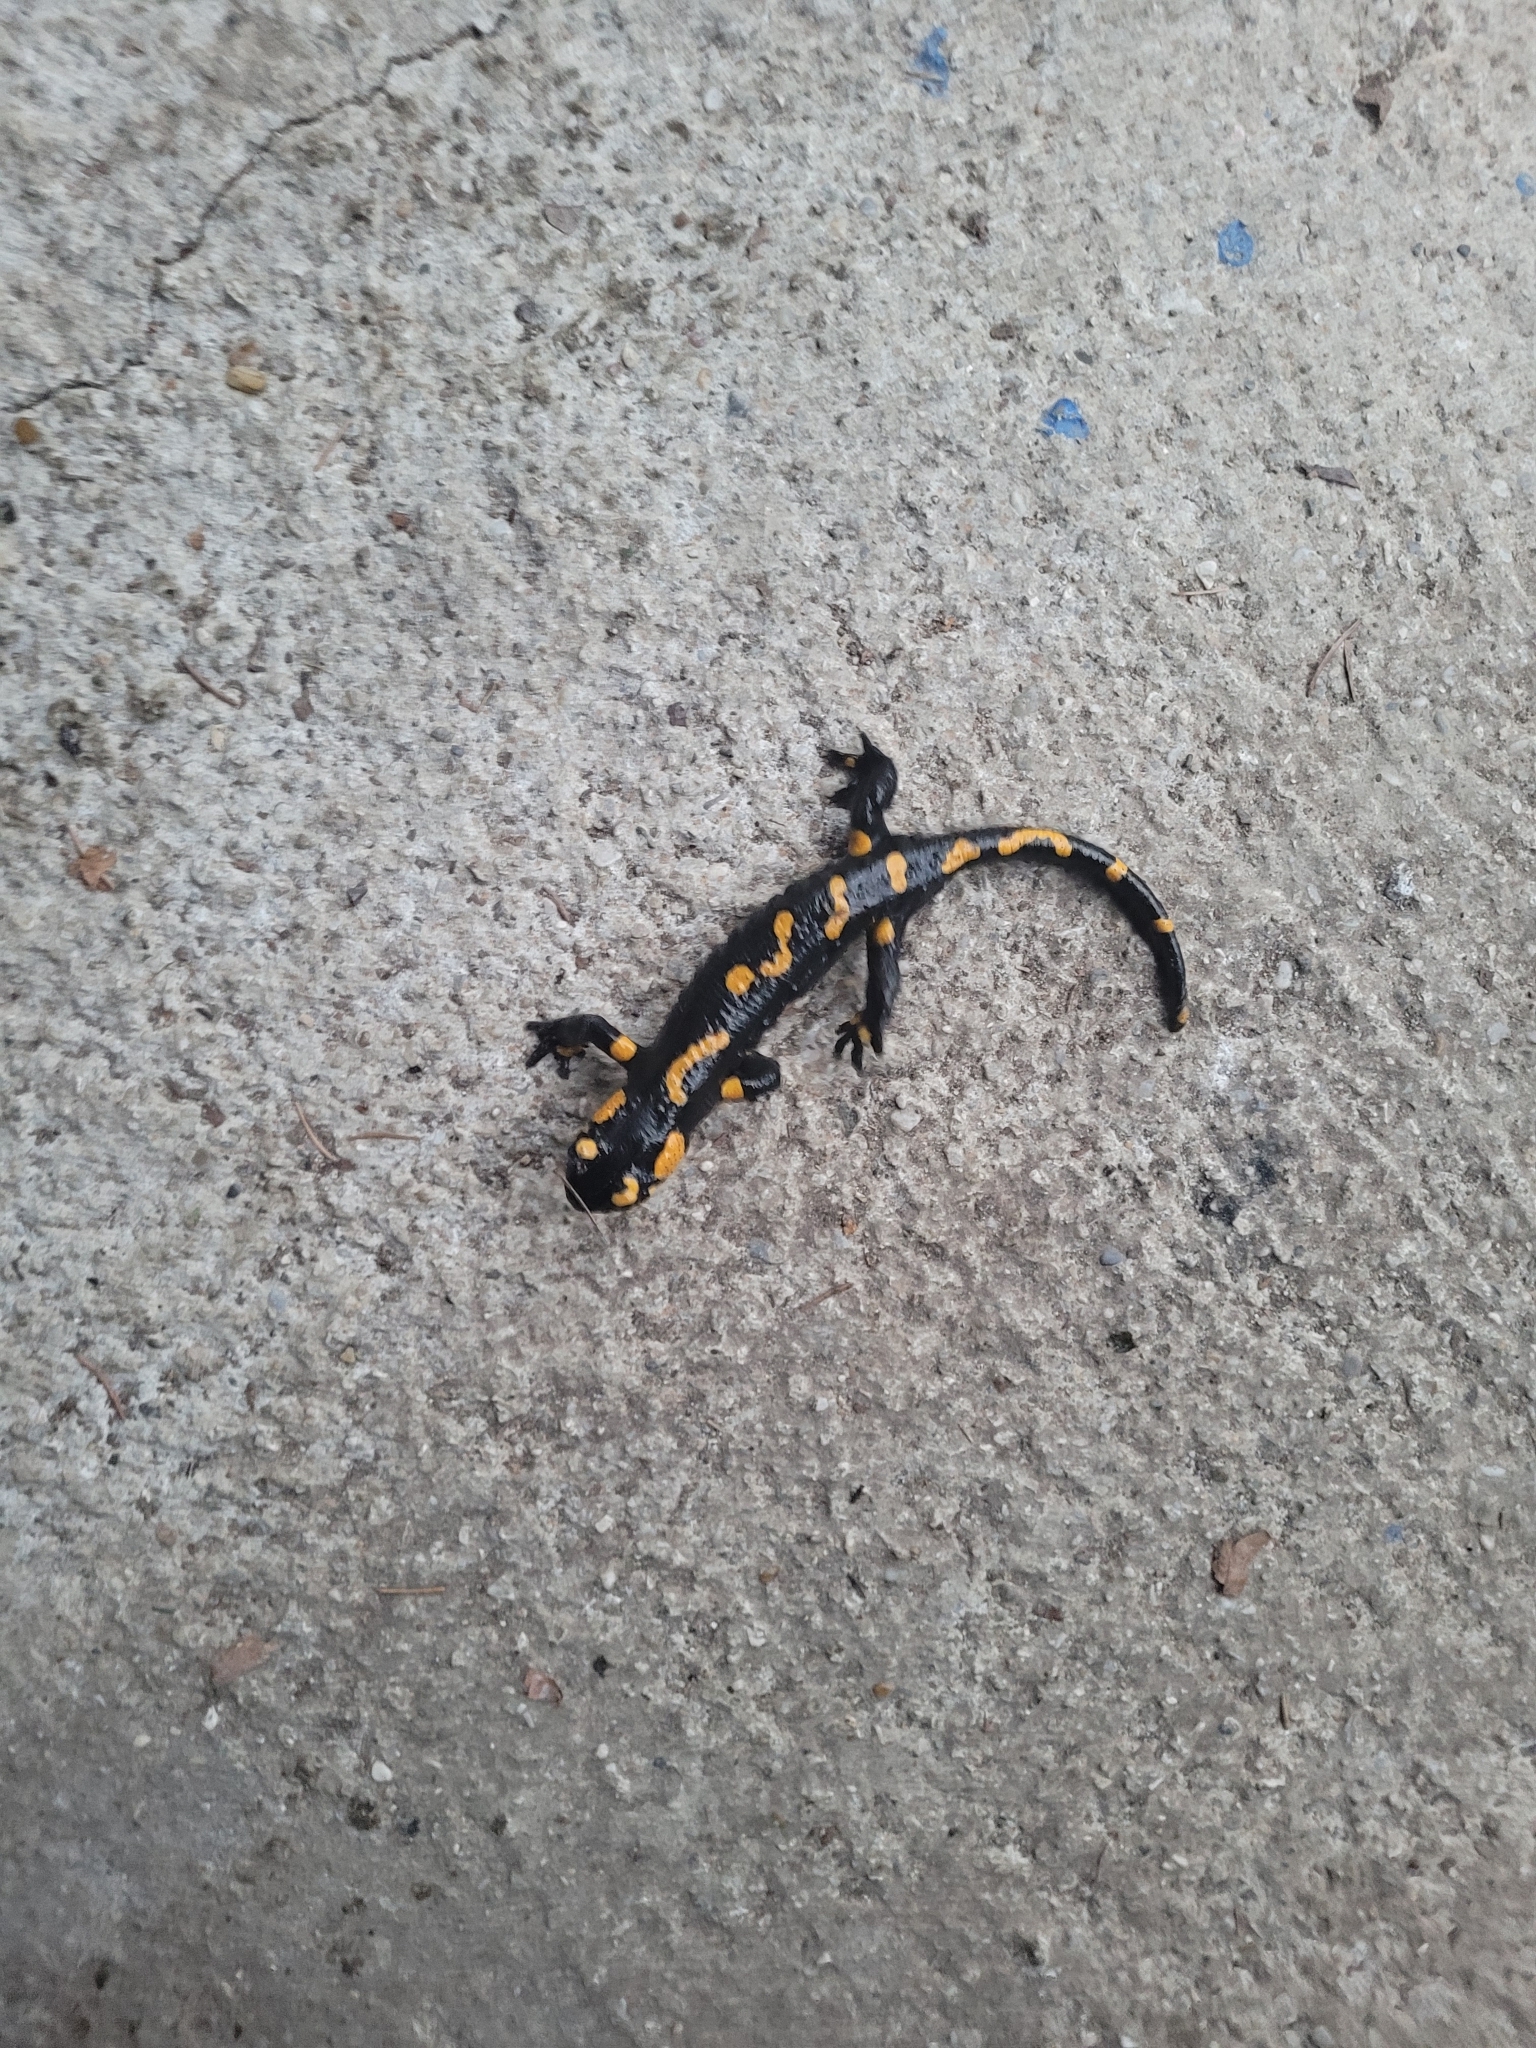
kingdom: Animalia
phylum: Chordata
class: Amphibia
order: Caudata
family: Salamandridae
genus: Salamandra
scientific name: Salamandra salamandra
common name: Fire salamander
